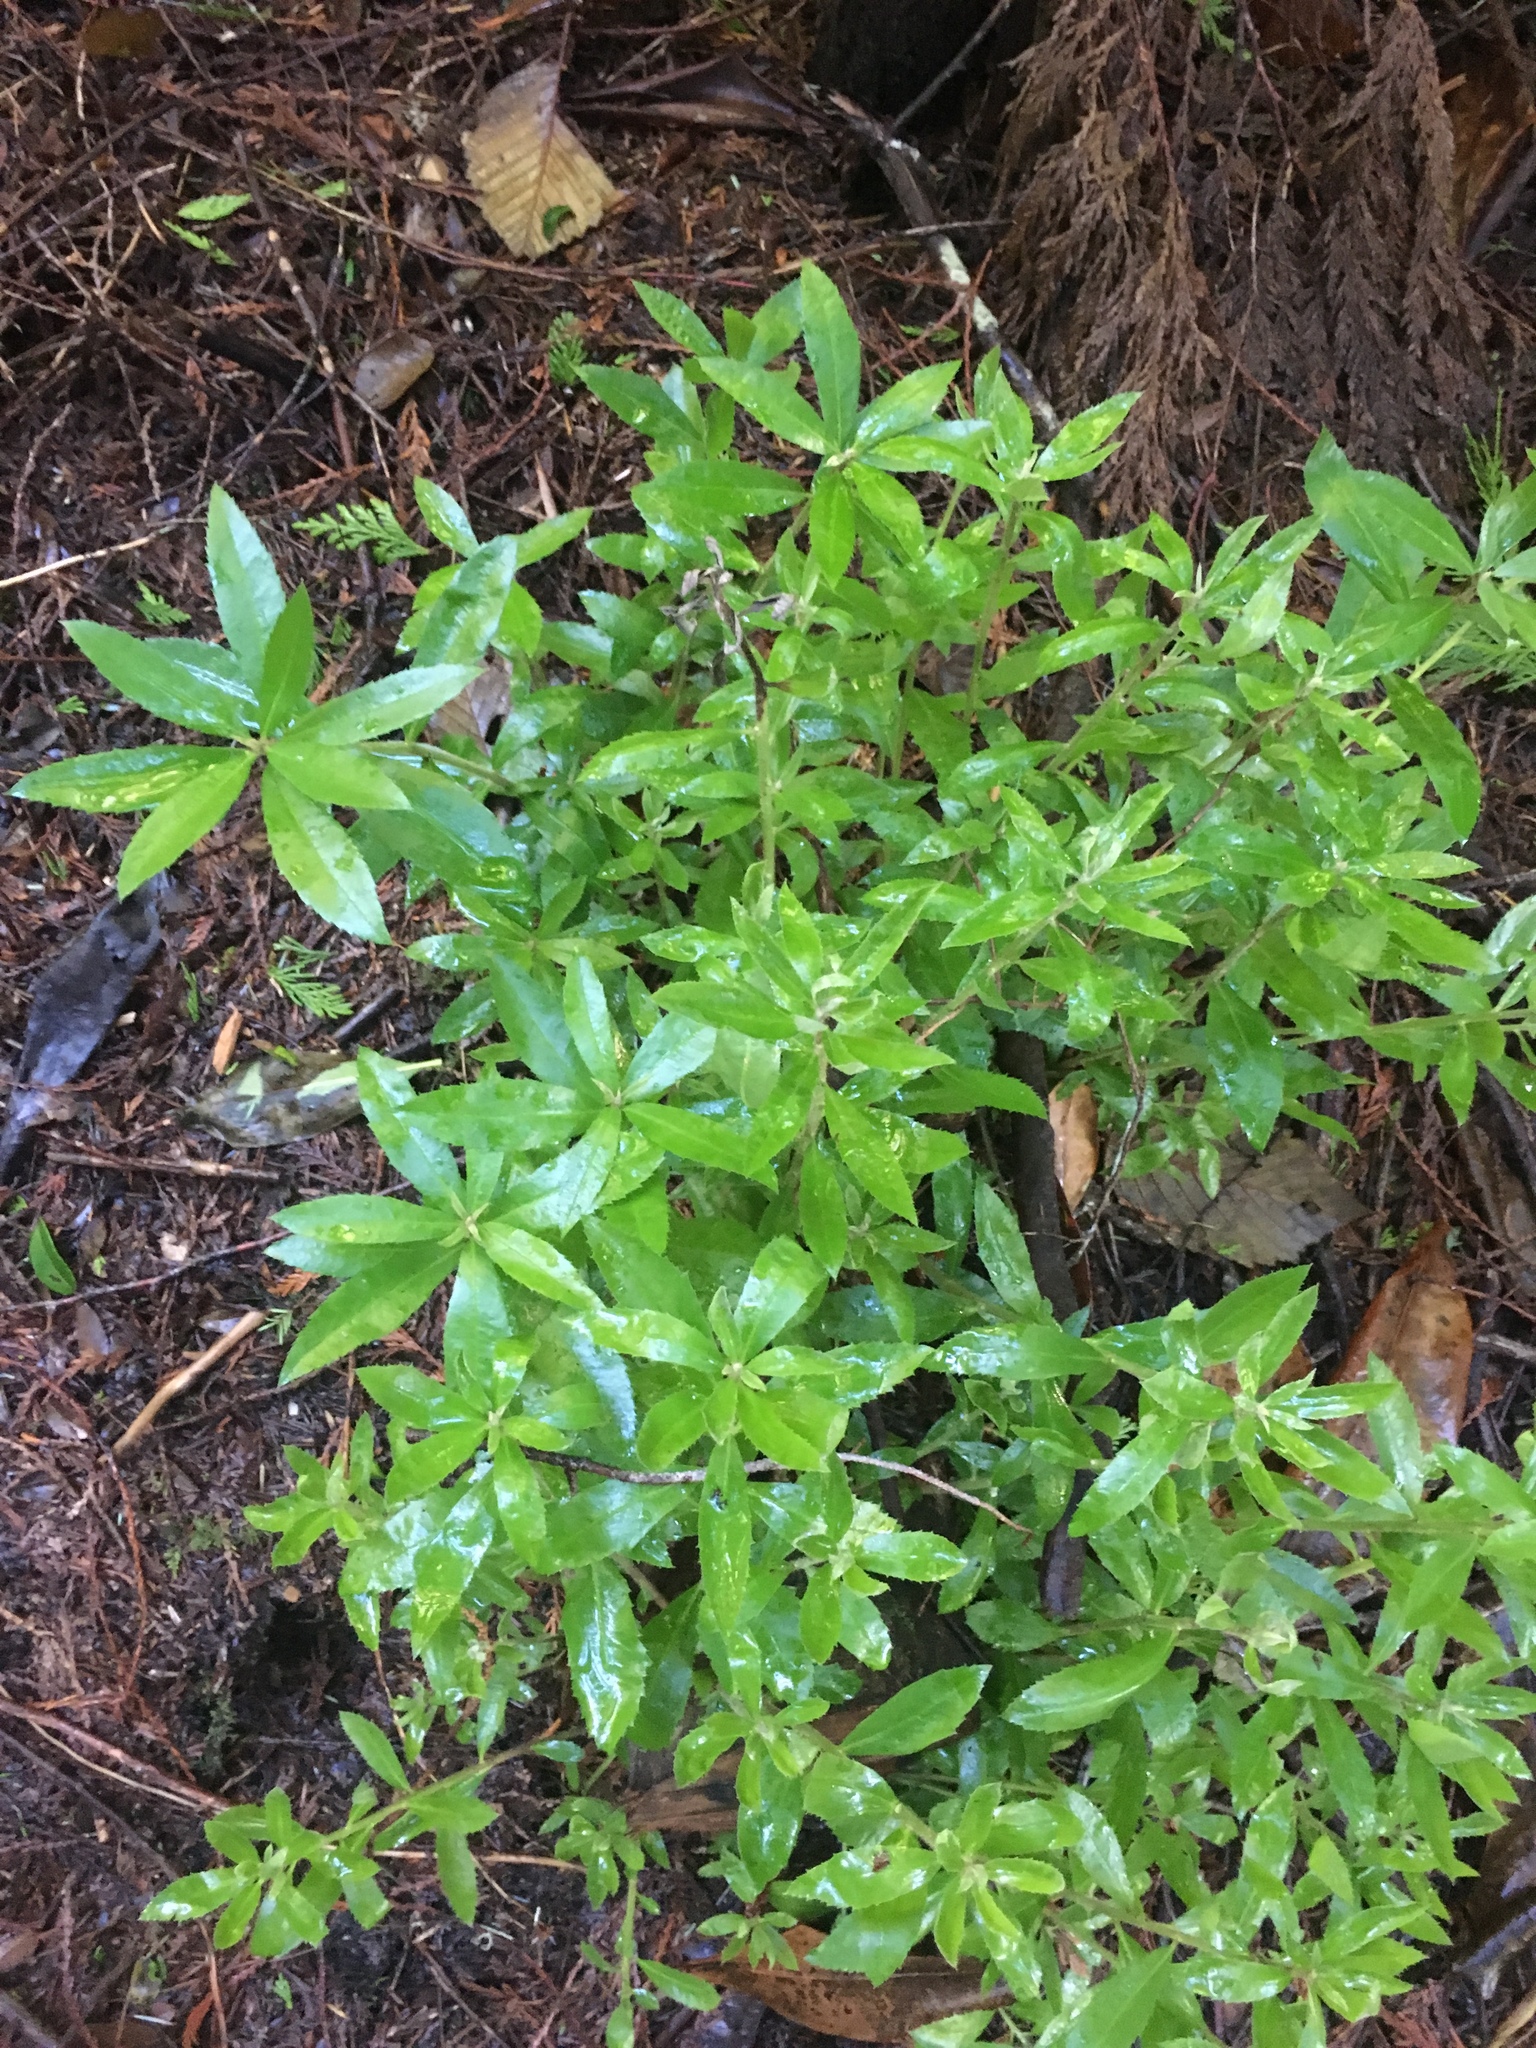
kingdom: Plantae
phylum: Tracheophyta
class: Magnoliopsida
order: Fagales
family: Myricaceae
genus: Morella
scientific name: Morella californica
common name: California wax-myrtle
